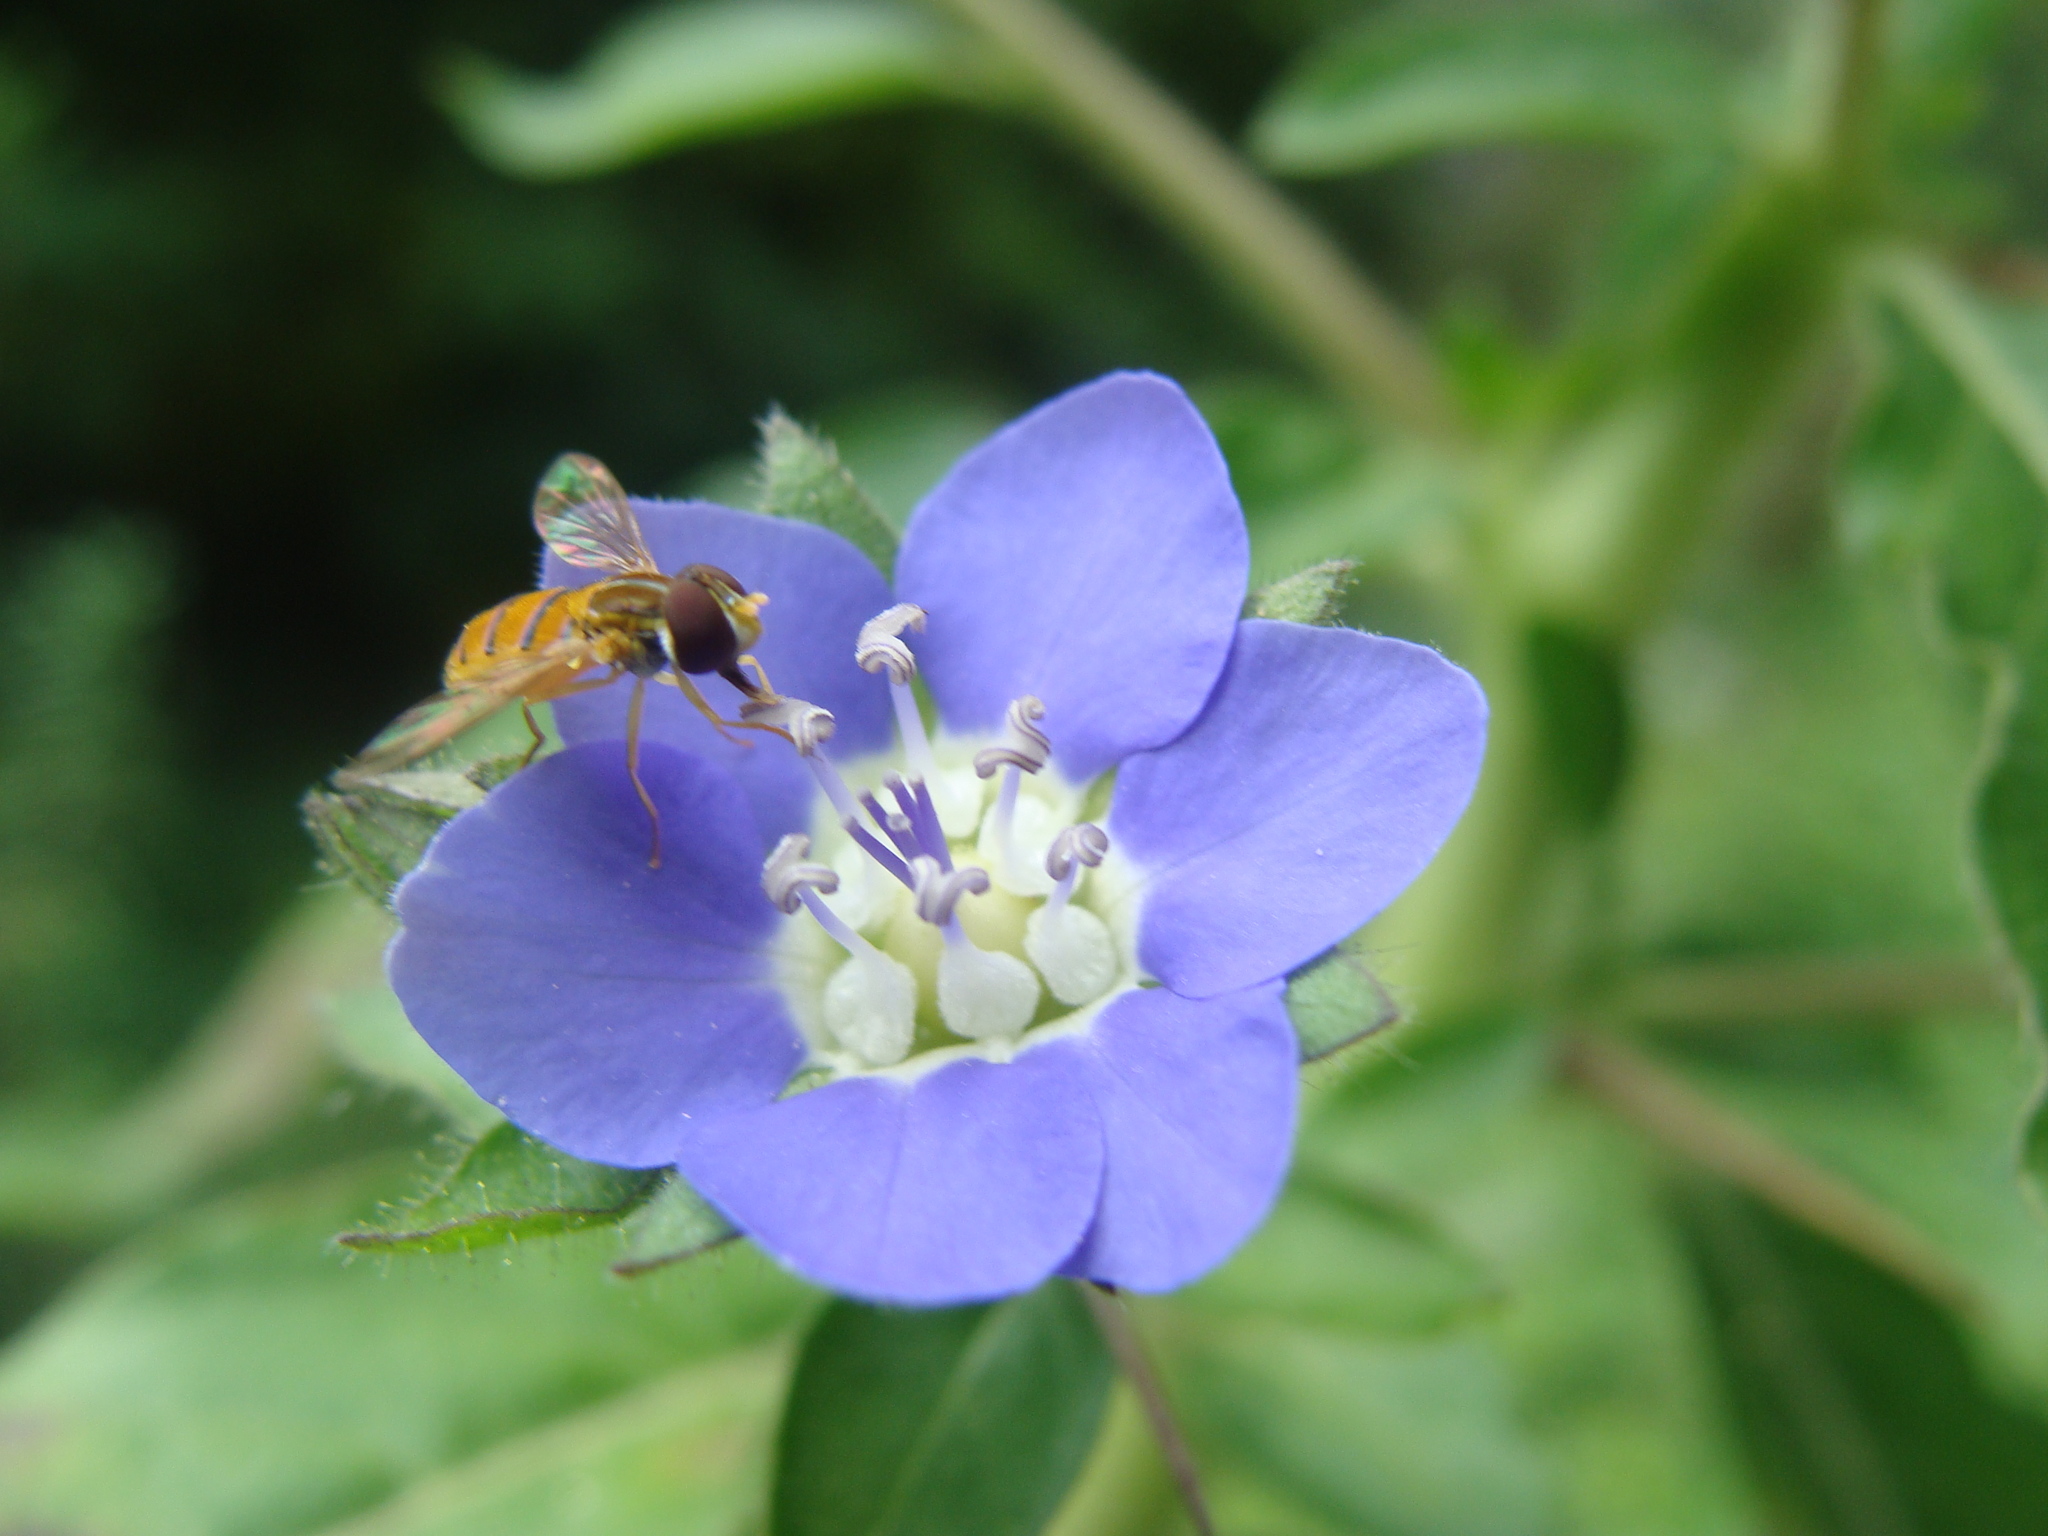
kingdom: Plantae
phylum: Tracheophyta
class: Magnoliopsida
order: Solanales
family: Hydroleaceae
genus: Hydrolea
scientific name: Hydrolea spinosa
